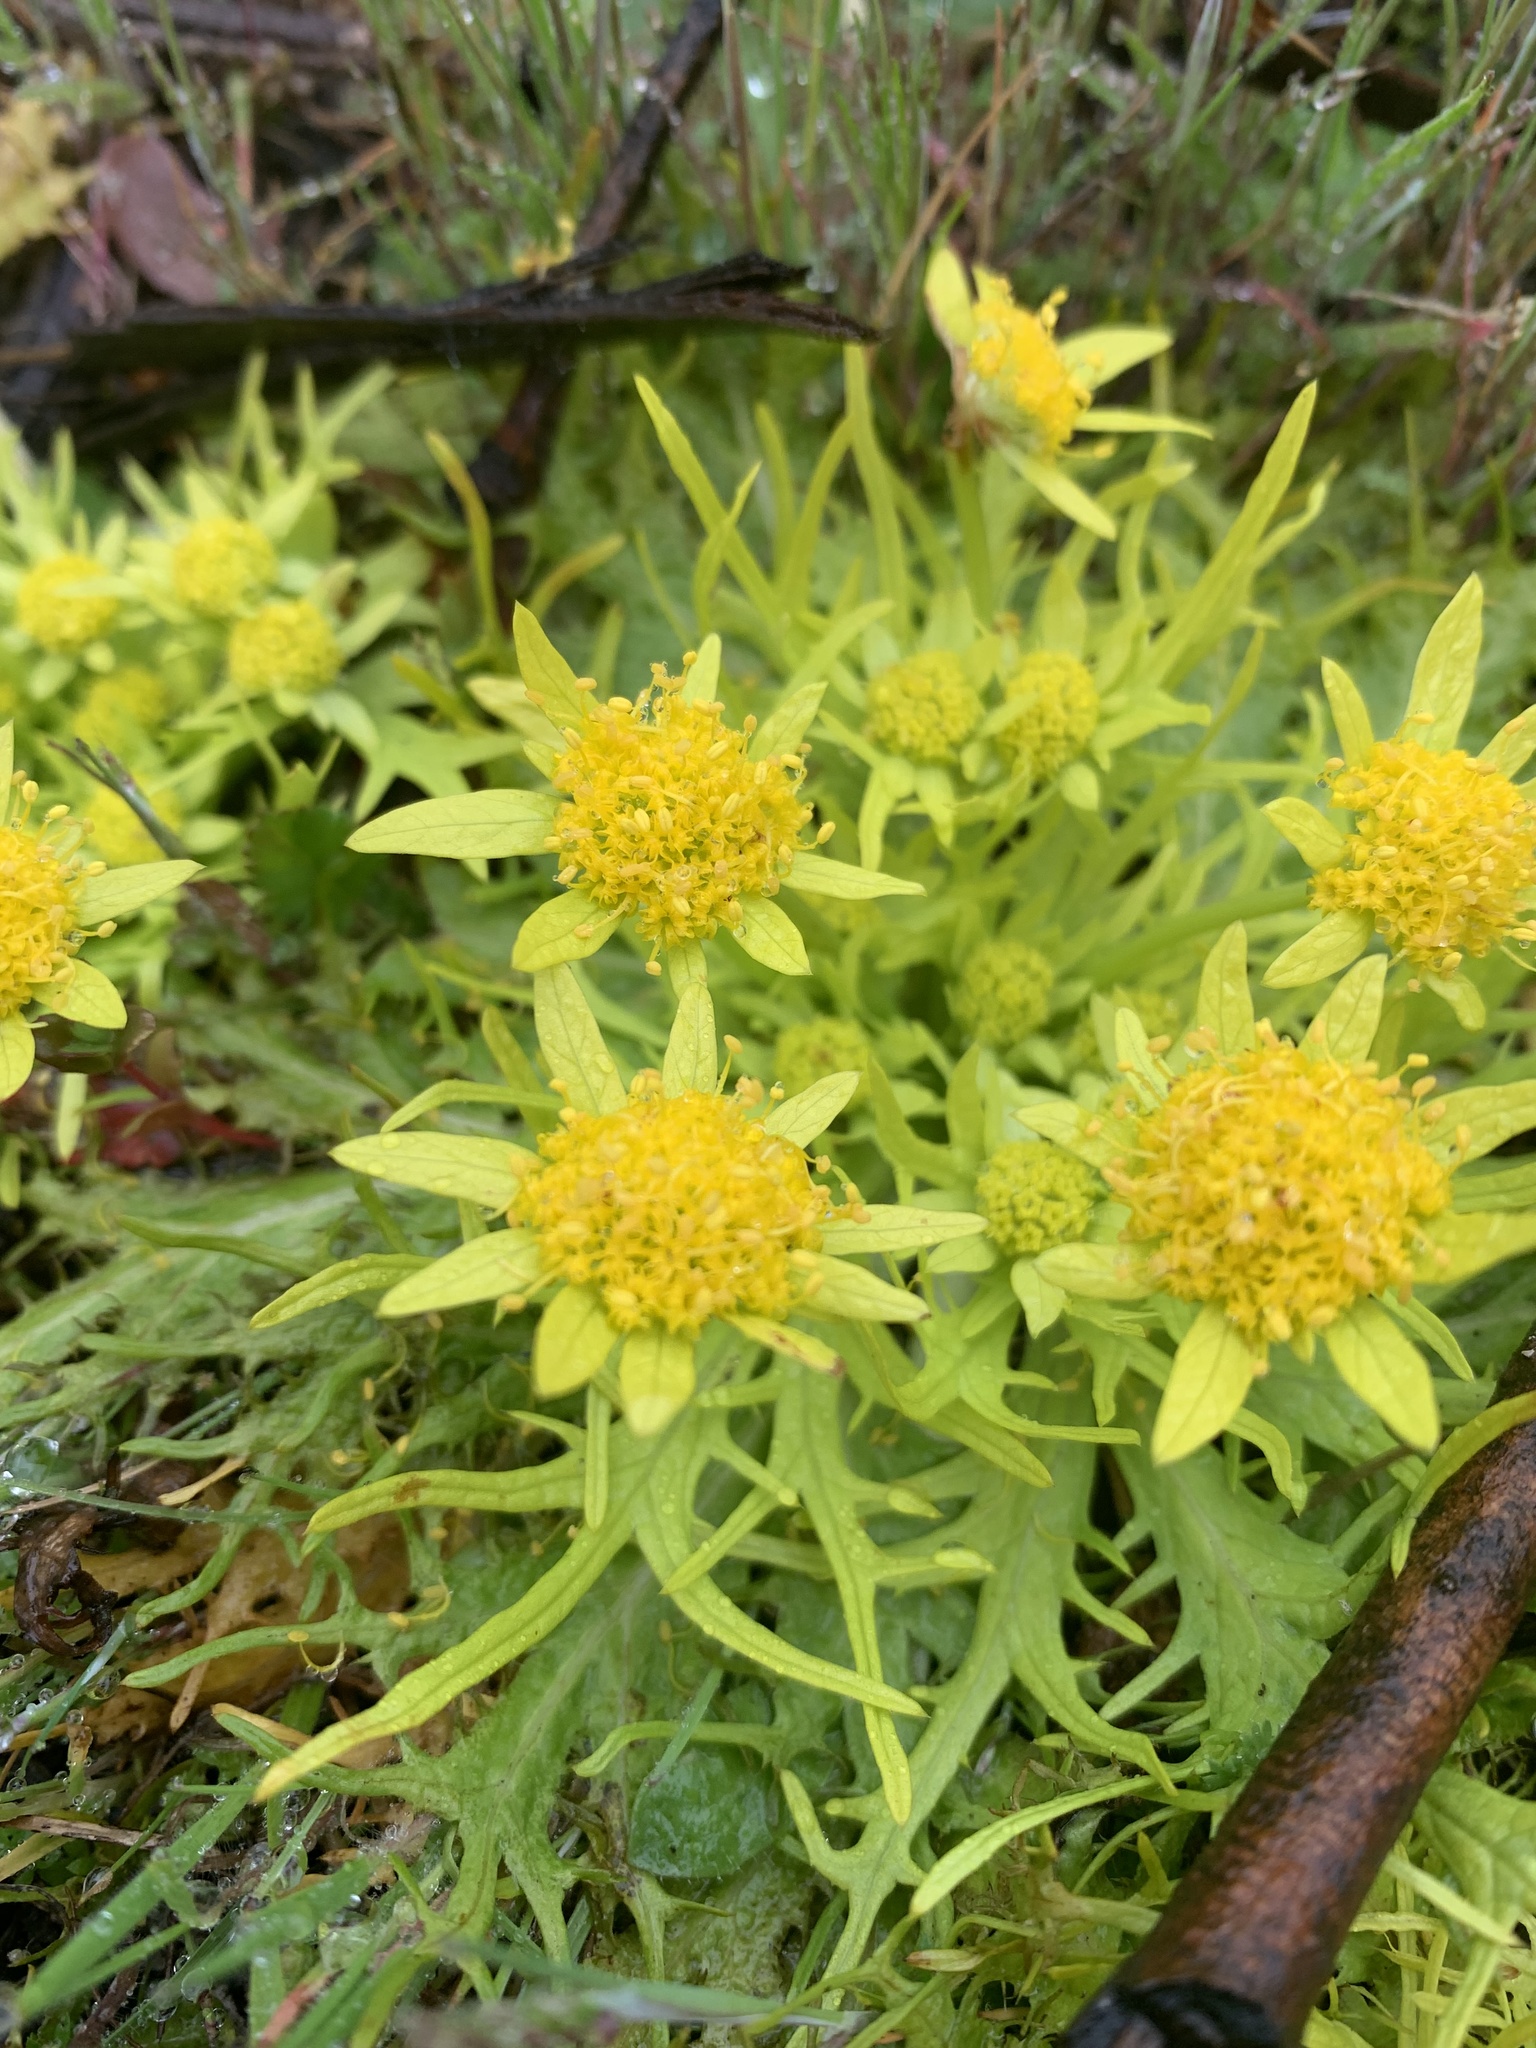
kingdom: Plantae
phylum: Tracheophyta
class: Magnoliopsida
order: Apiales
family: Apiaceae
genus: Sanicula
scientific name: Sanicula arctopoides
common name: Footsteps-of-spring
